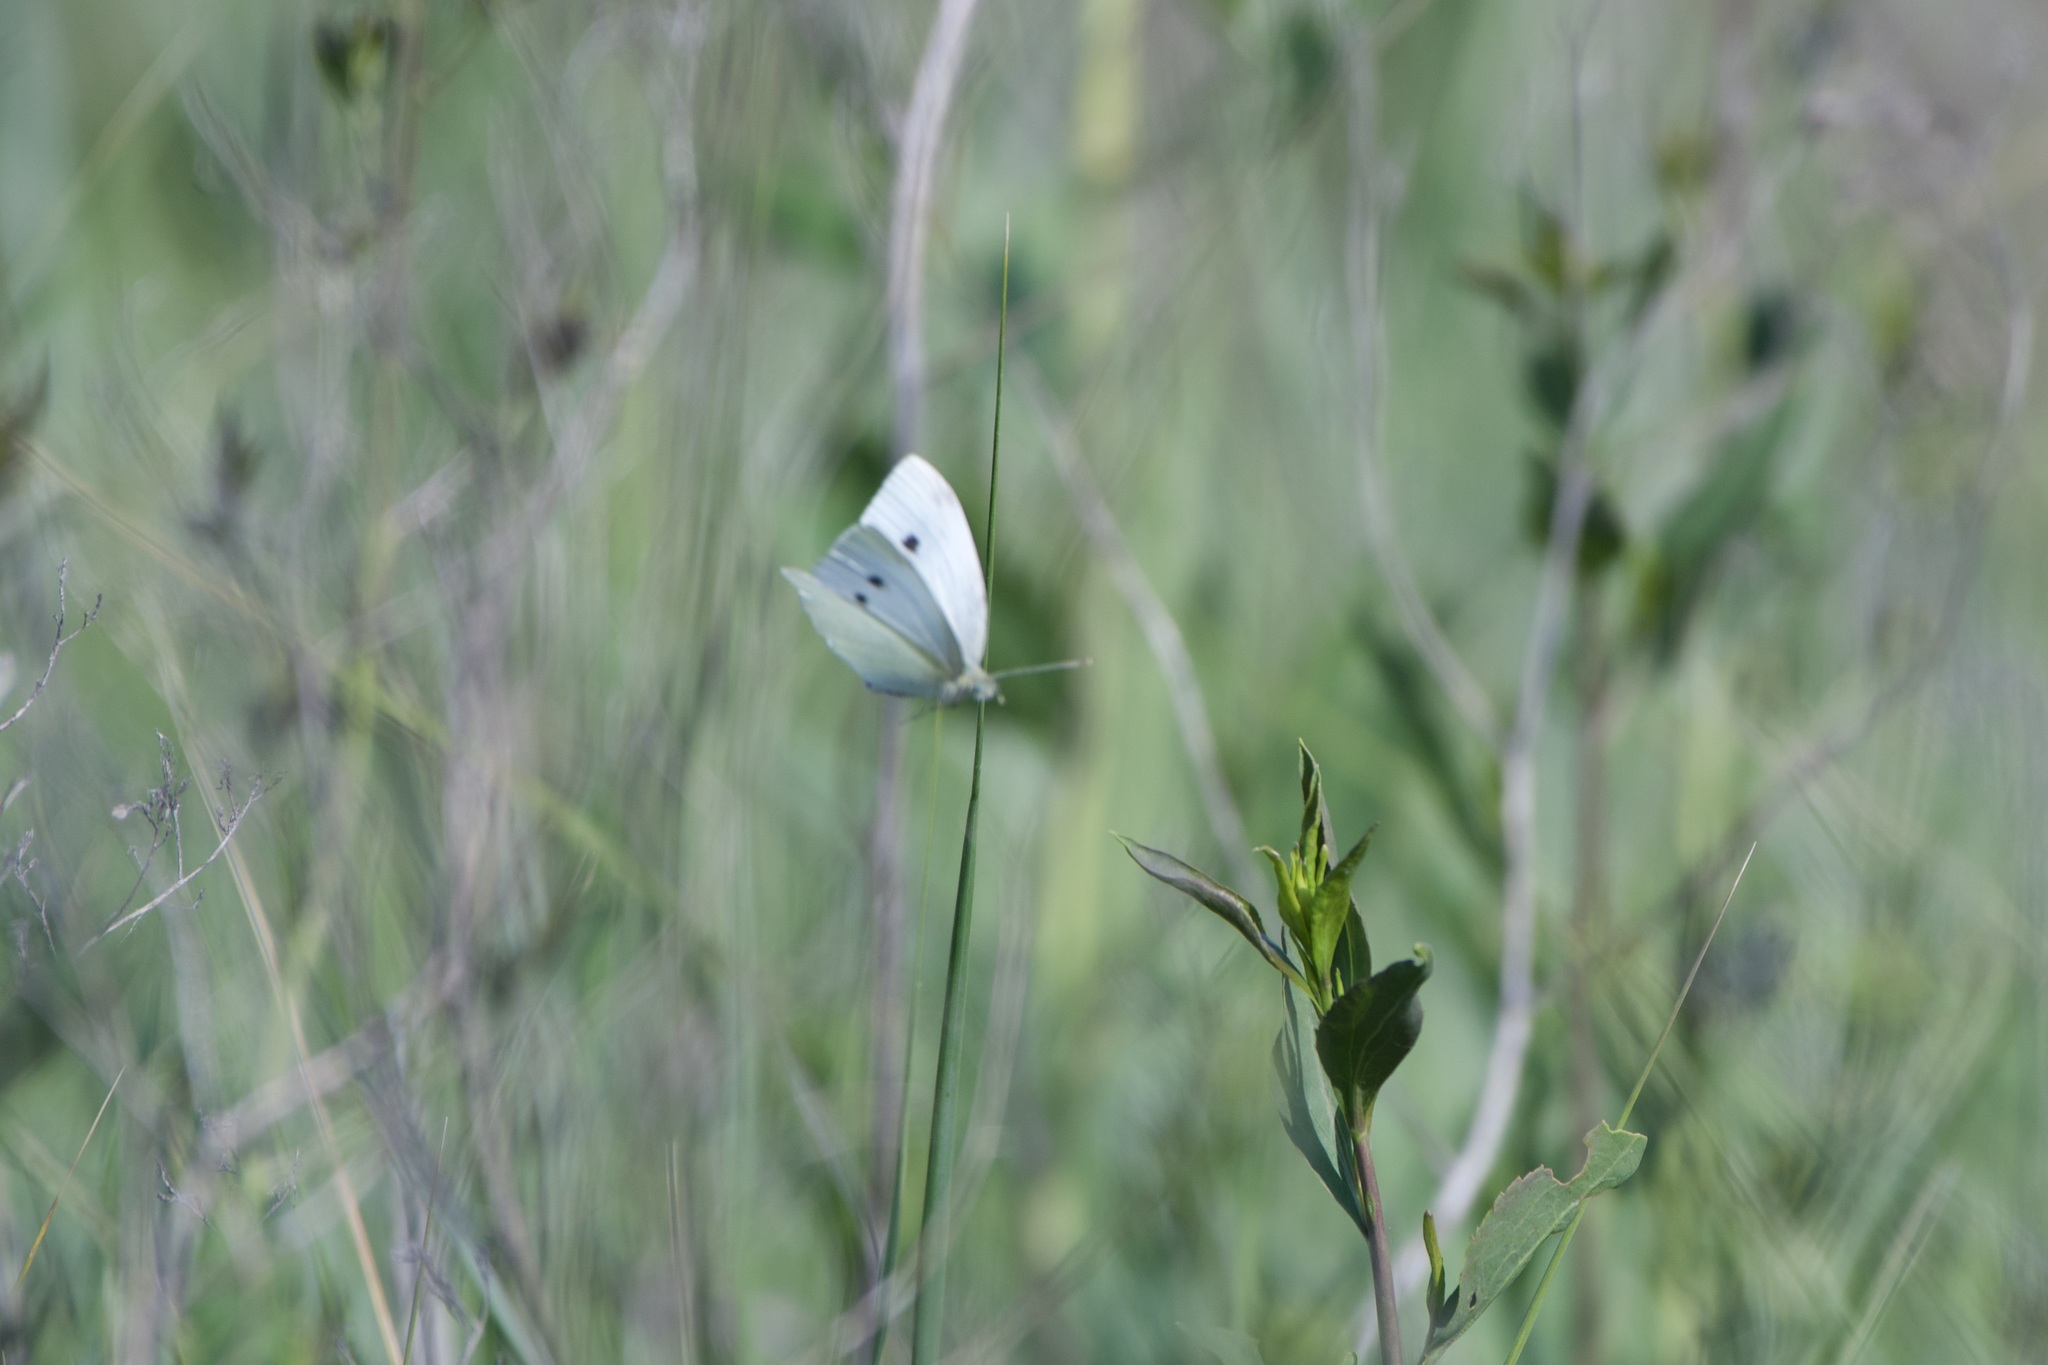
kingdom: Animalia
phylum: Arthropoda
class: Insecta
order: Lepidoptera
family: Pieridae
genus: Pieris
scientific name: Pieris rapae
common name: Small white
